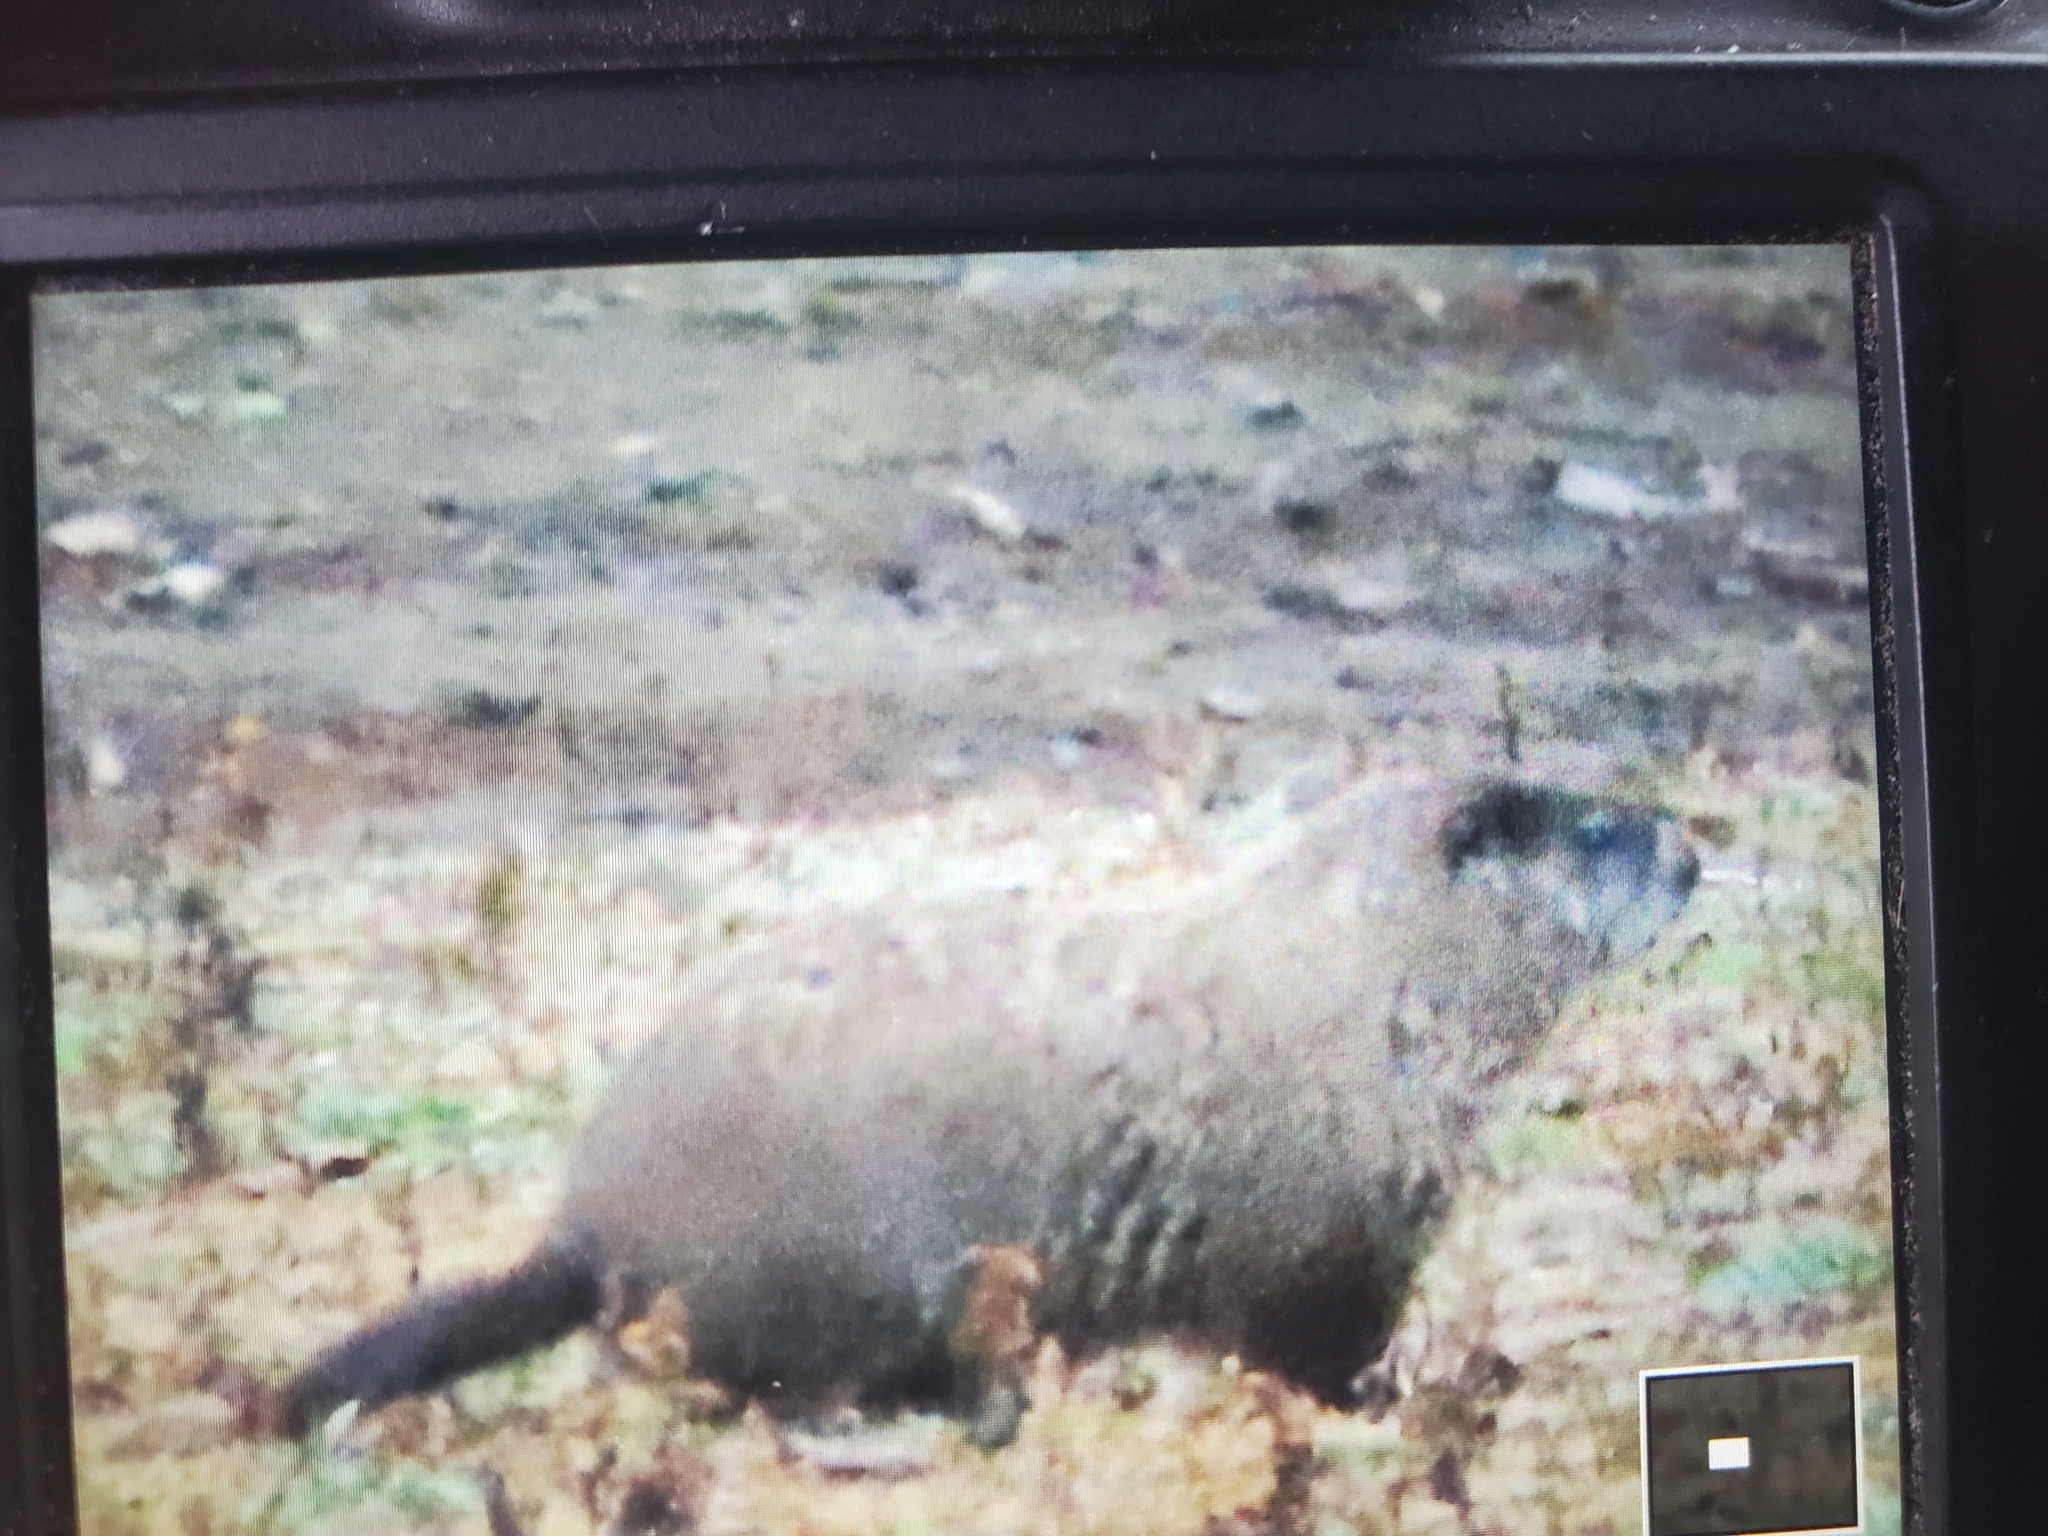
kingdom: Animalia
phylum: Chordata
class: Mammalia
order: Rodentia
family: Sciuridae
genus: Marmota
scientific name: Marmota monax
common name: Groundhog
